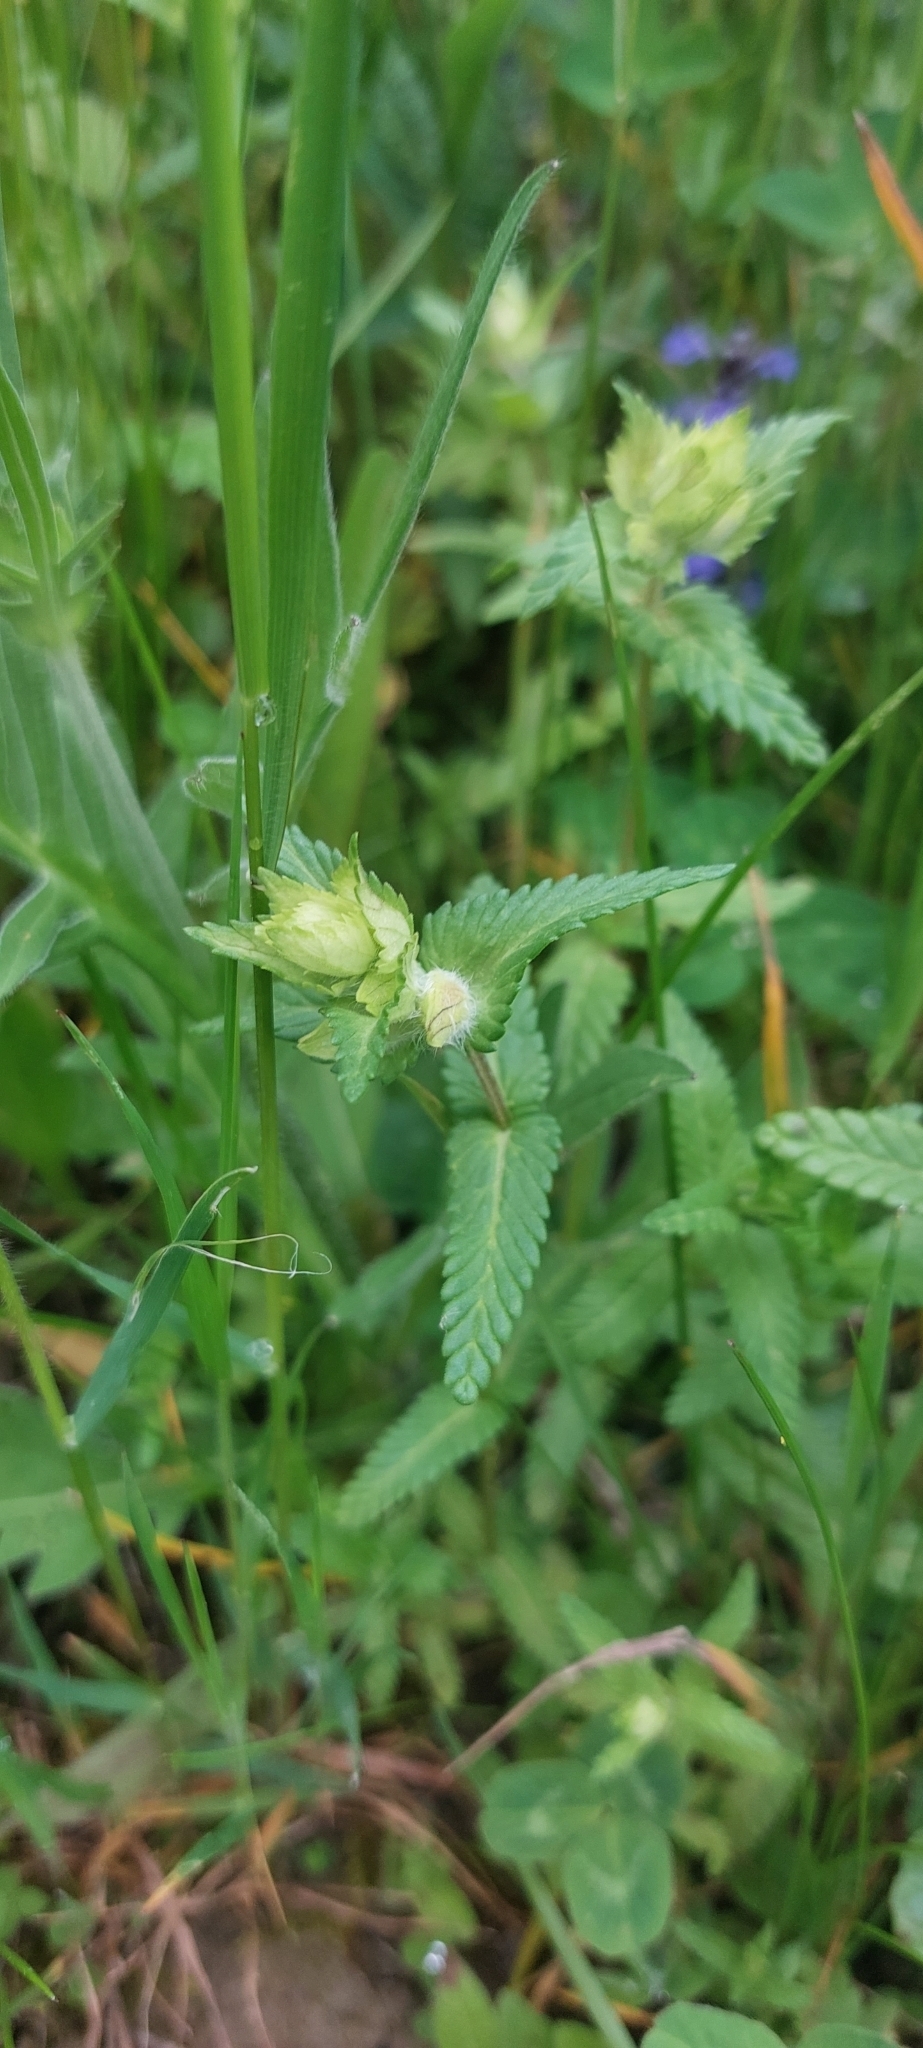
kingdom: Plantae
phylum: Tracheophyta
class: Magnoliopsida
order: Lamiales
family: Orobanchaceae
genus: Rhinanthus
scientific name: Rhinanthus alectorolophus
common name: Greater yellow-rattle
